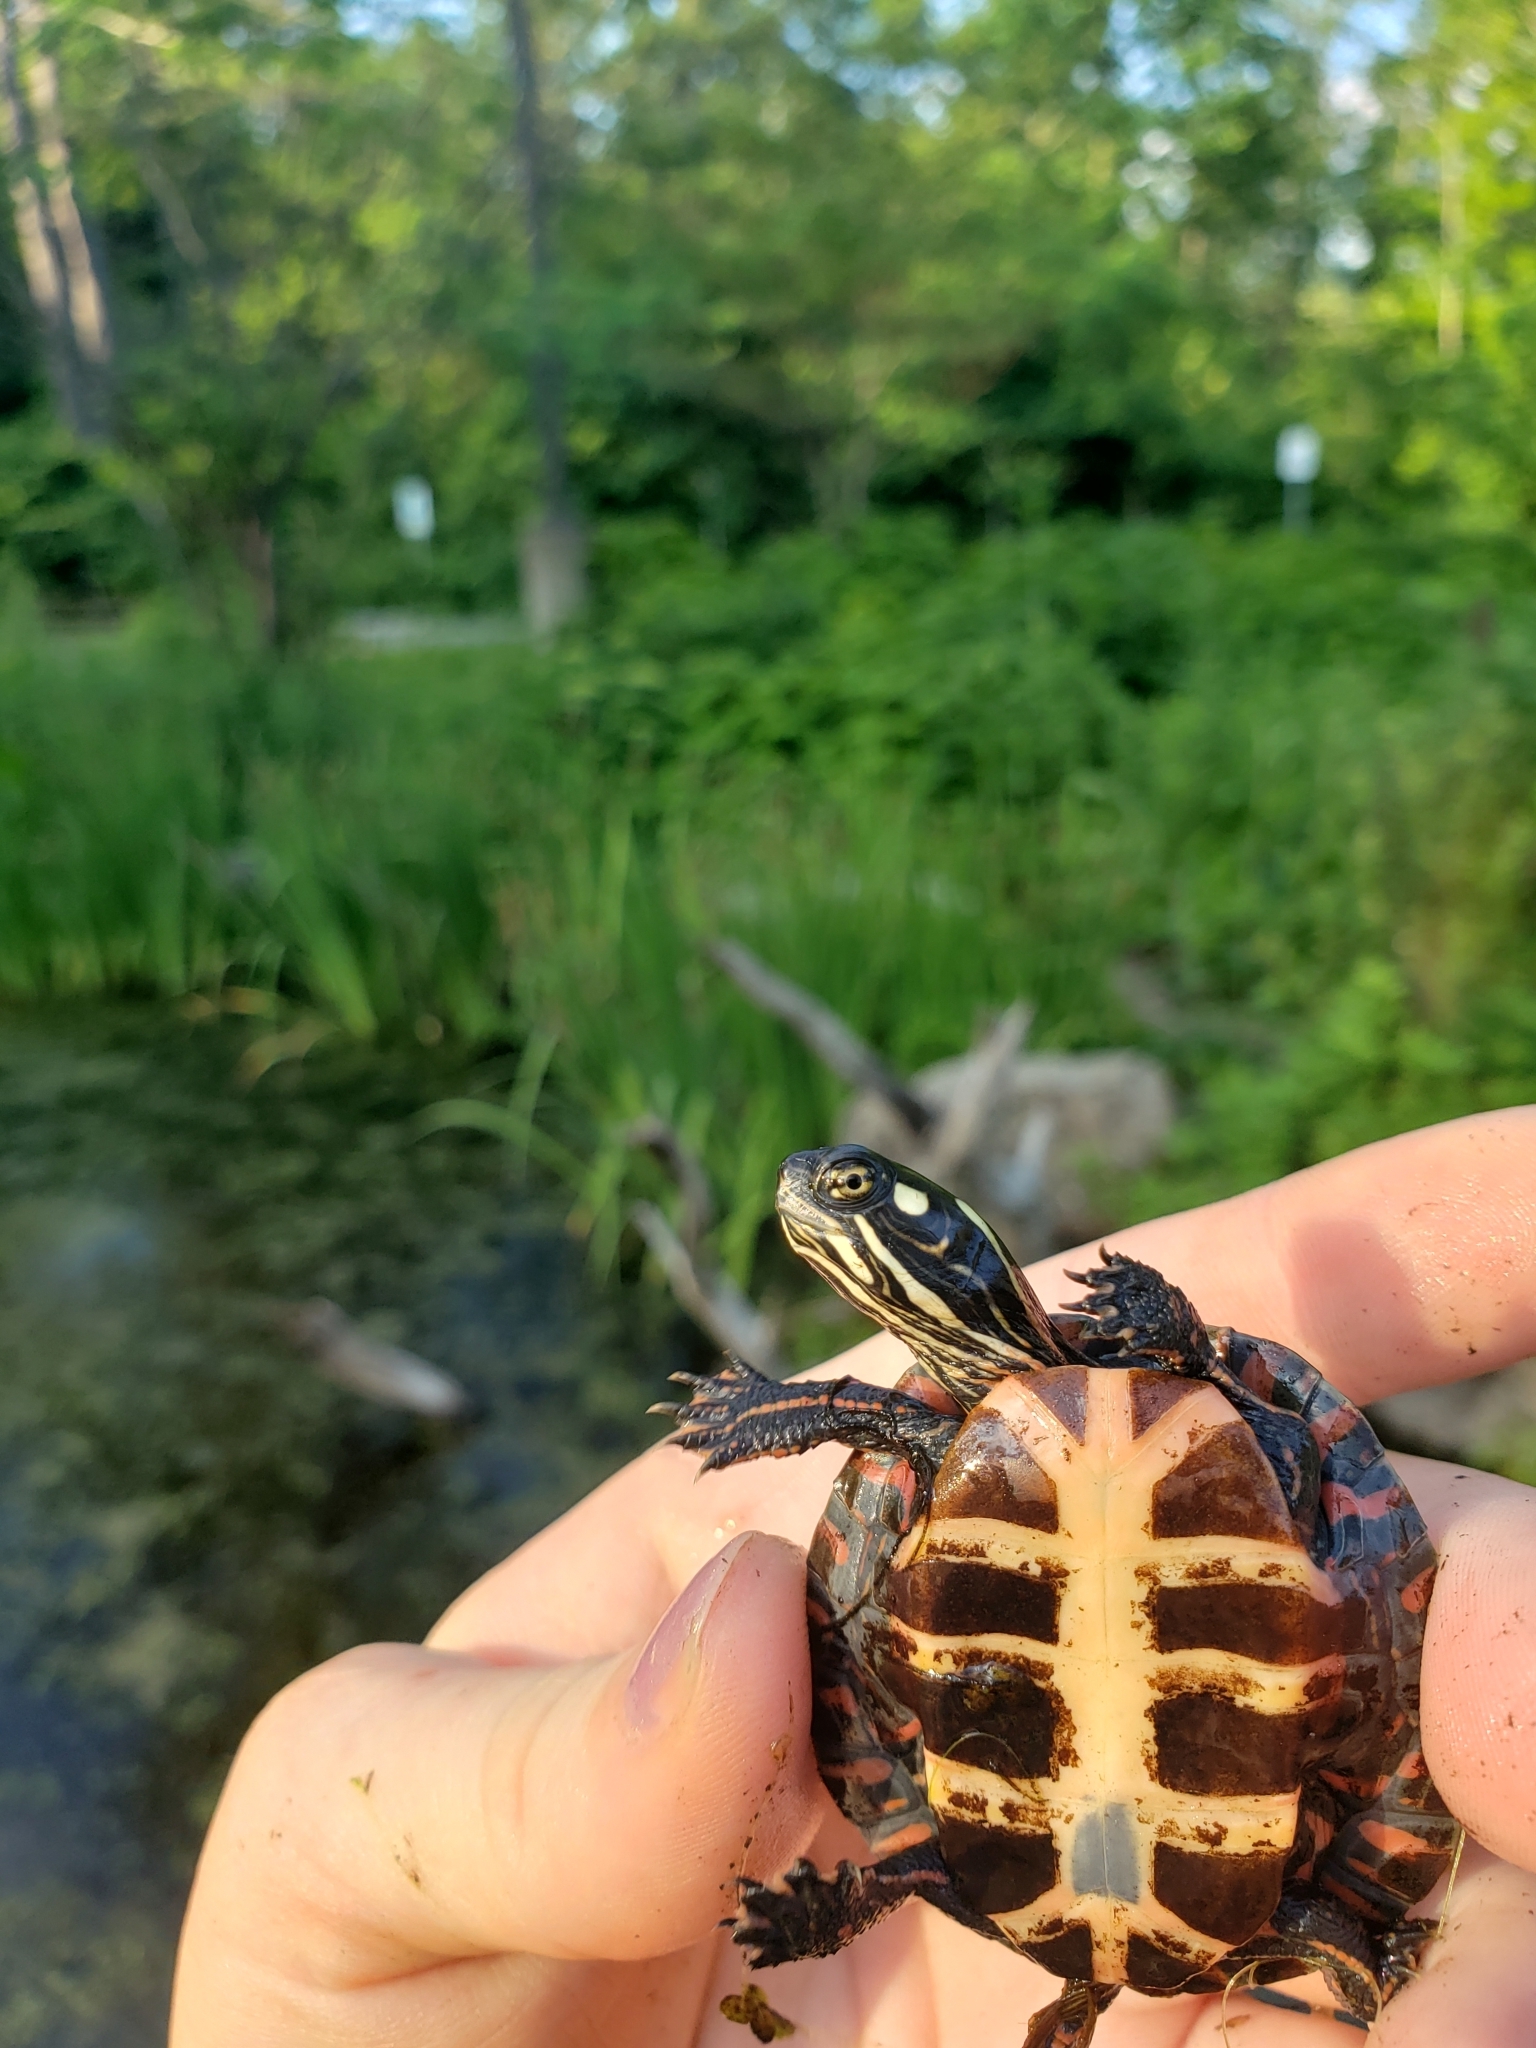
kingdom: Animalia
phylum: Chordata
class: Testudines
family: Emydidae
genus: Chrysemys
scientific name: Chrysemys picta
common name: Painted turtle
